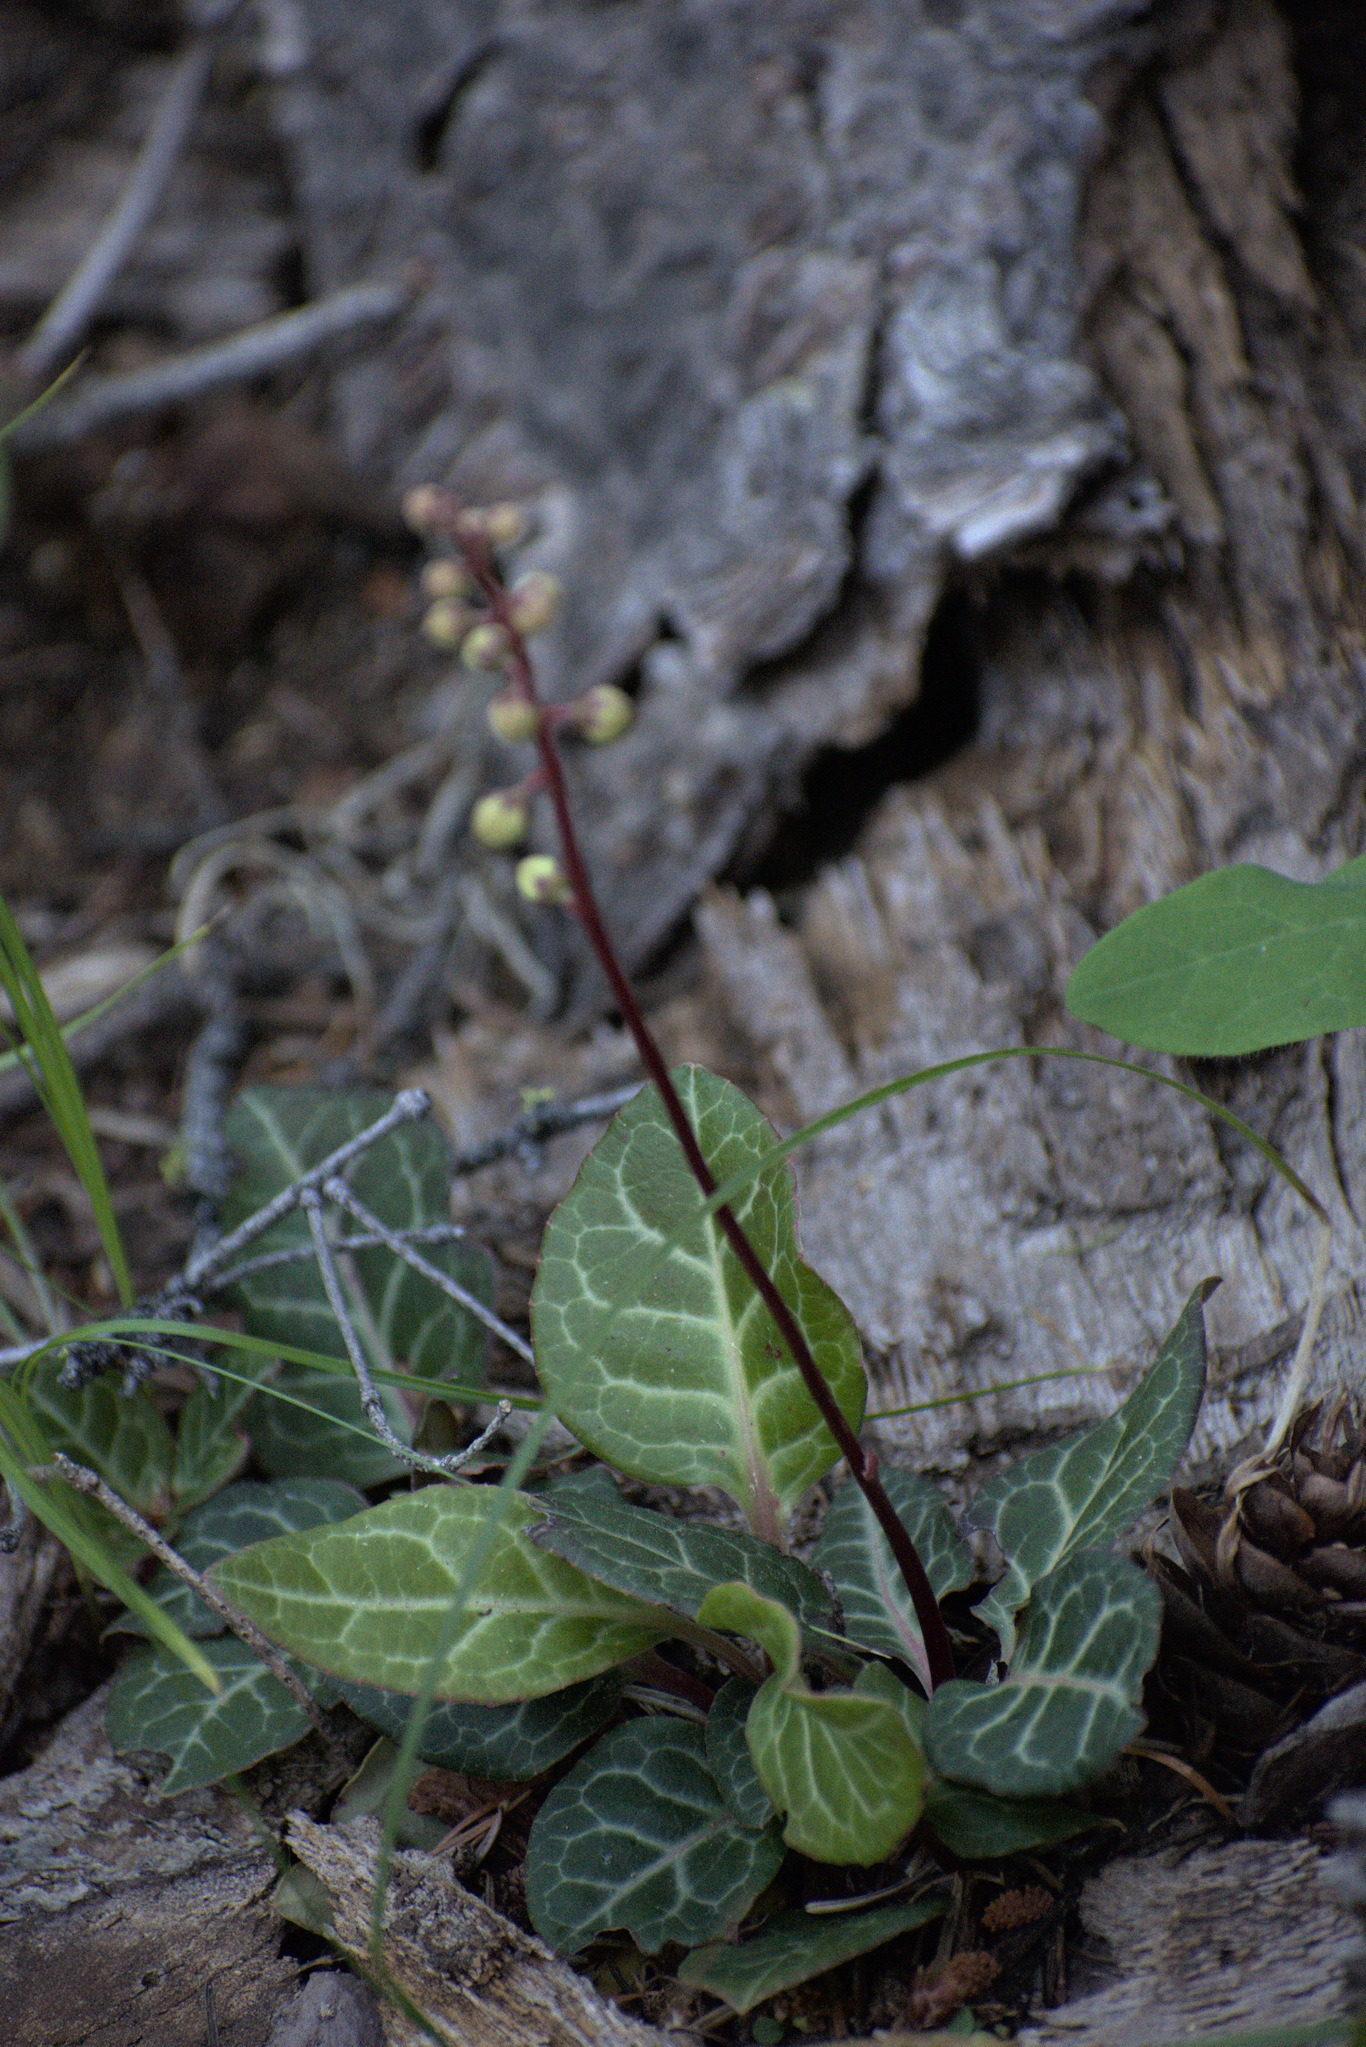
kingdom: Plantae
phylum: Tracheophyta
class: Magnoliopsida
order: Ericales
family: Ericaceae
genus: Pyrola
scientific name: Pyrola picta
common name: White-vein wintergreen
